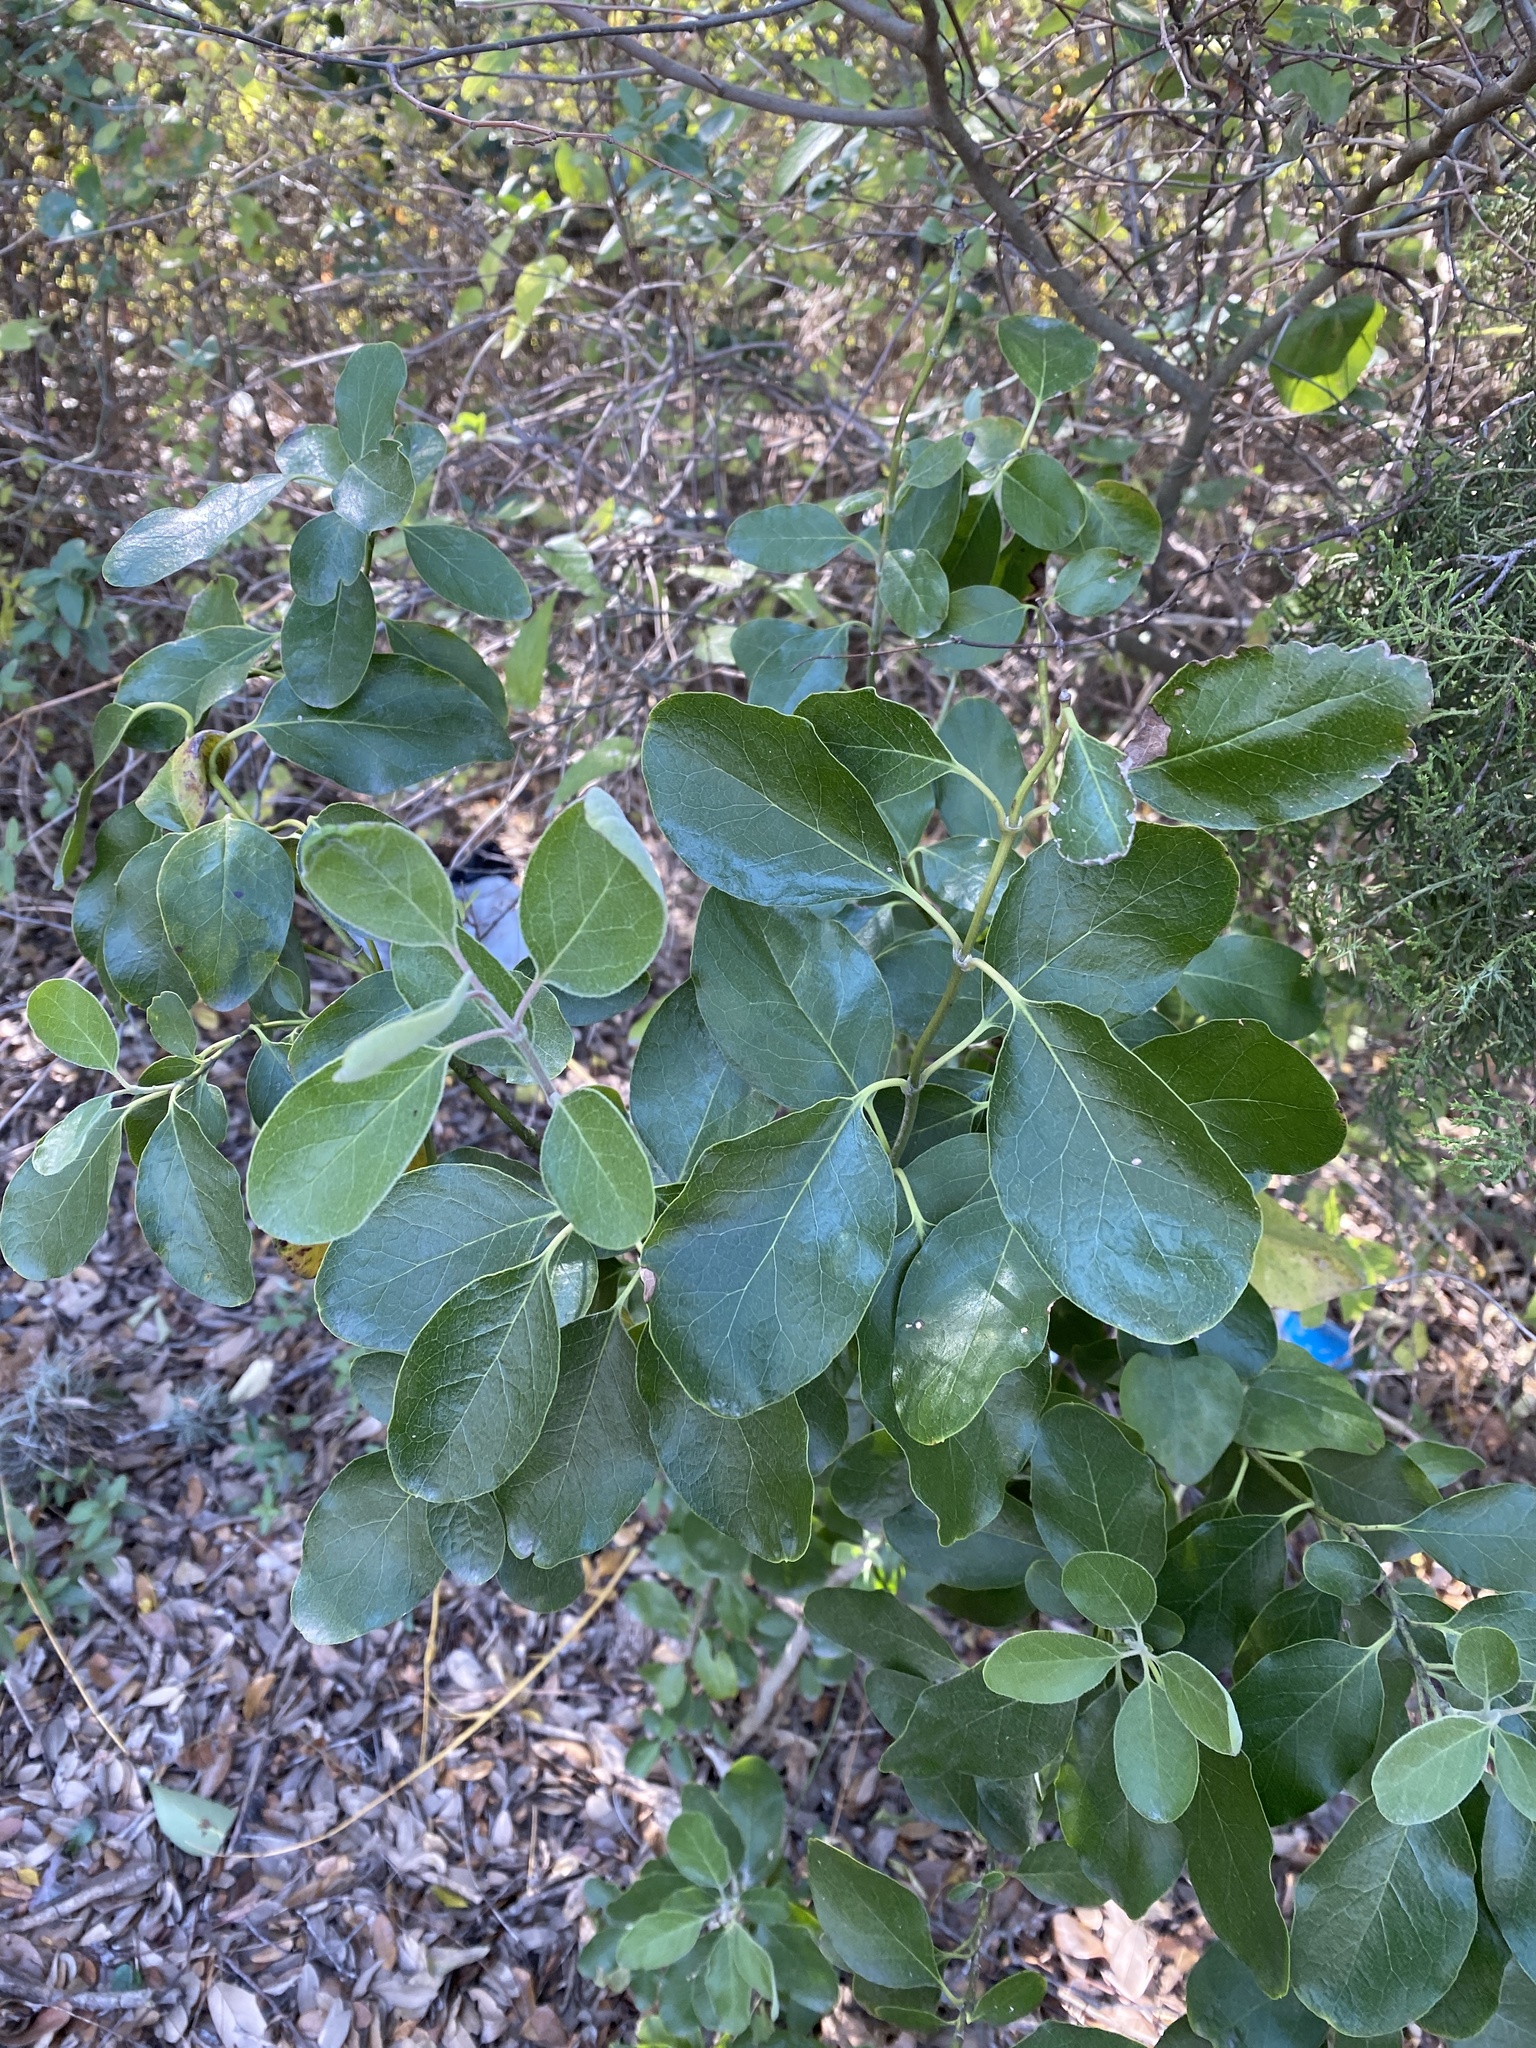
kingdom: Plantae
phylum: Tracheophyta
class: Magnoliopsida
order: Garryales
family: Garryaceae
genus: Garrya
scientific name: Garrya lindheimeri
